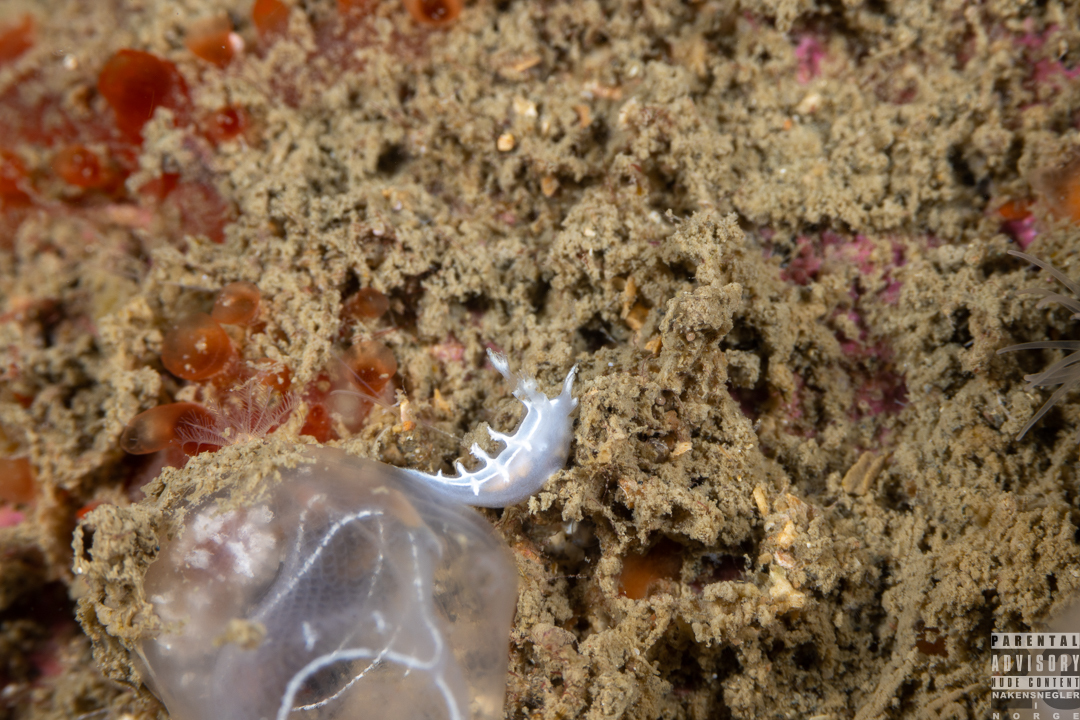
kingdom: Animalia
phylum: Mollusca
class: Gastropoda
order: Nudibranchia
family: Tritoniidae
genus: Duvaucelia
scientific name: Duvaucelia lineata
